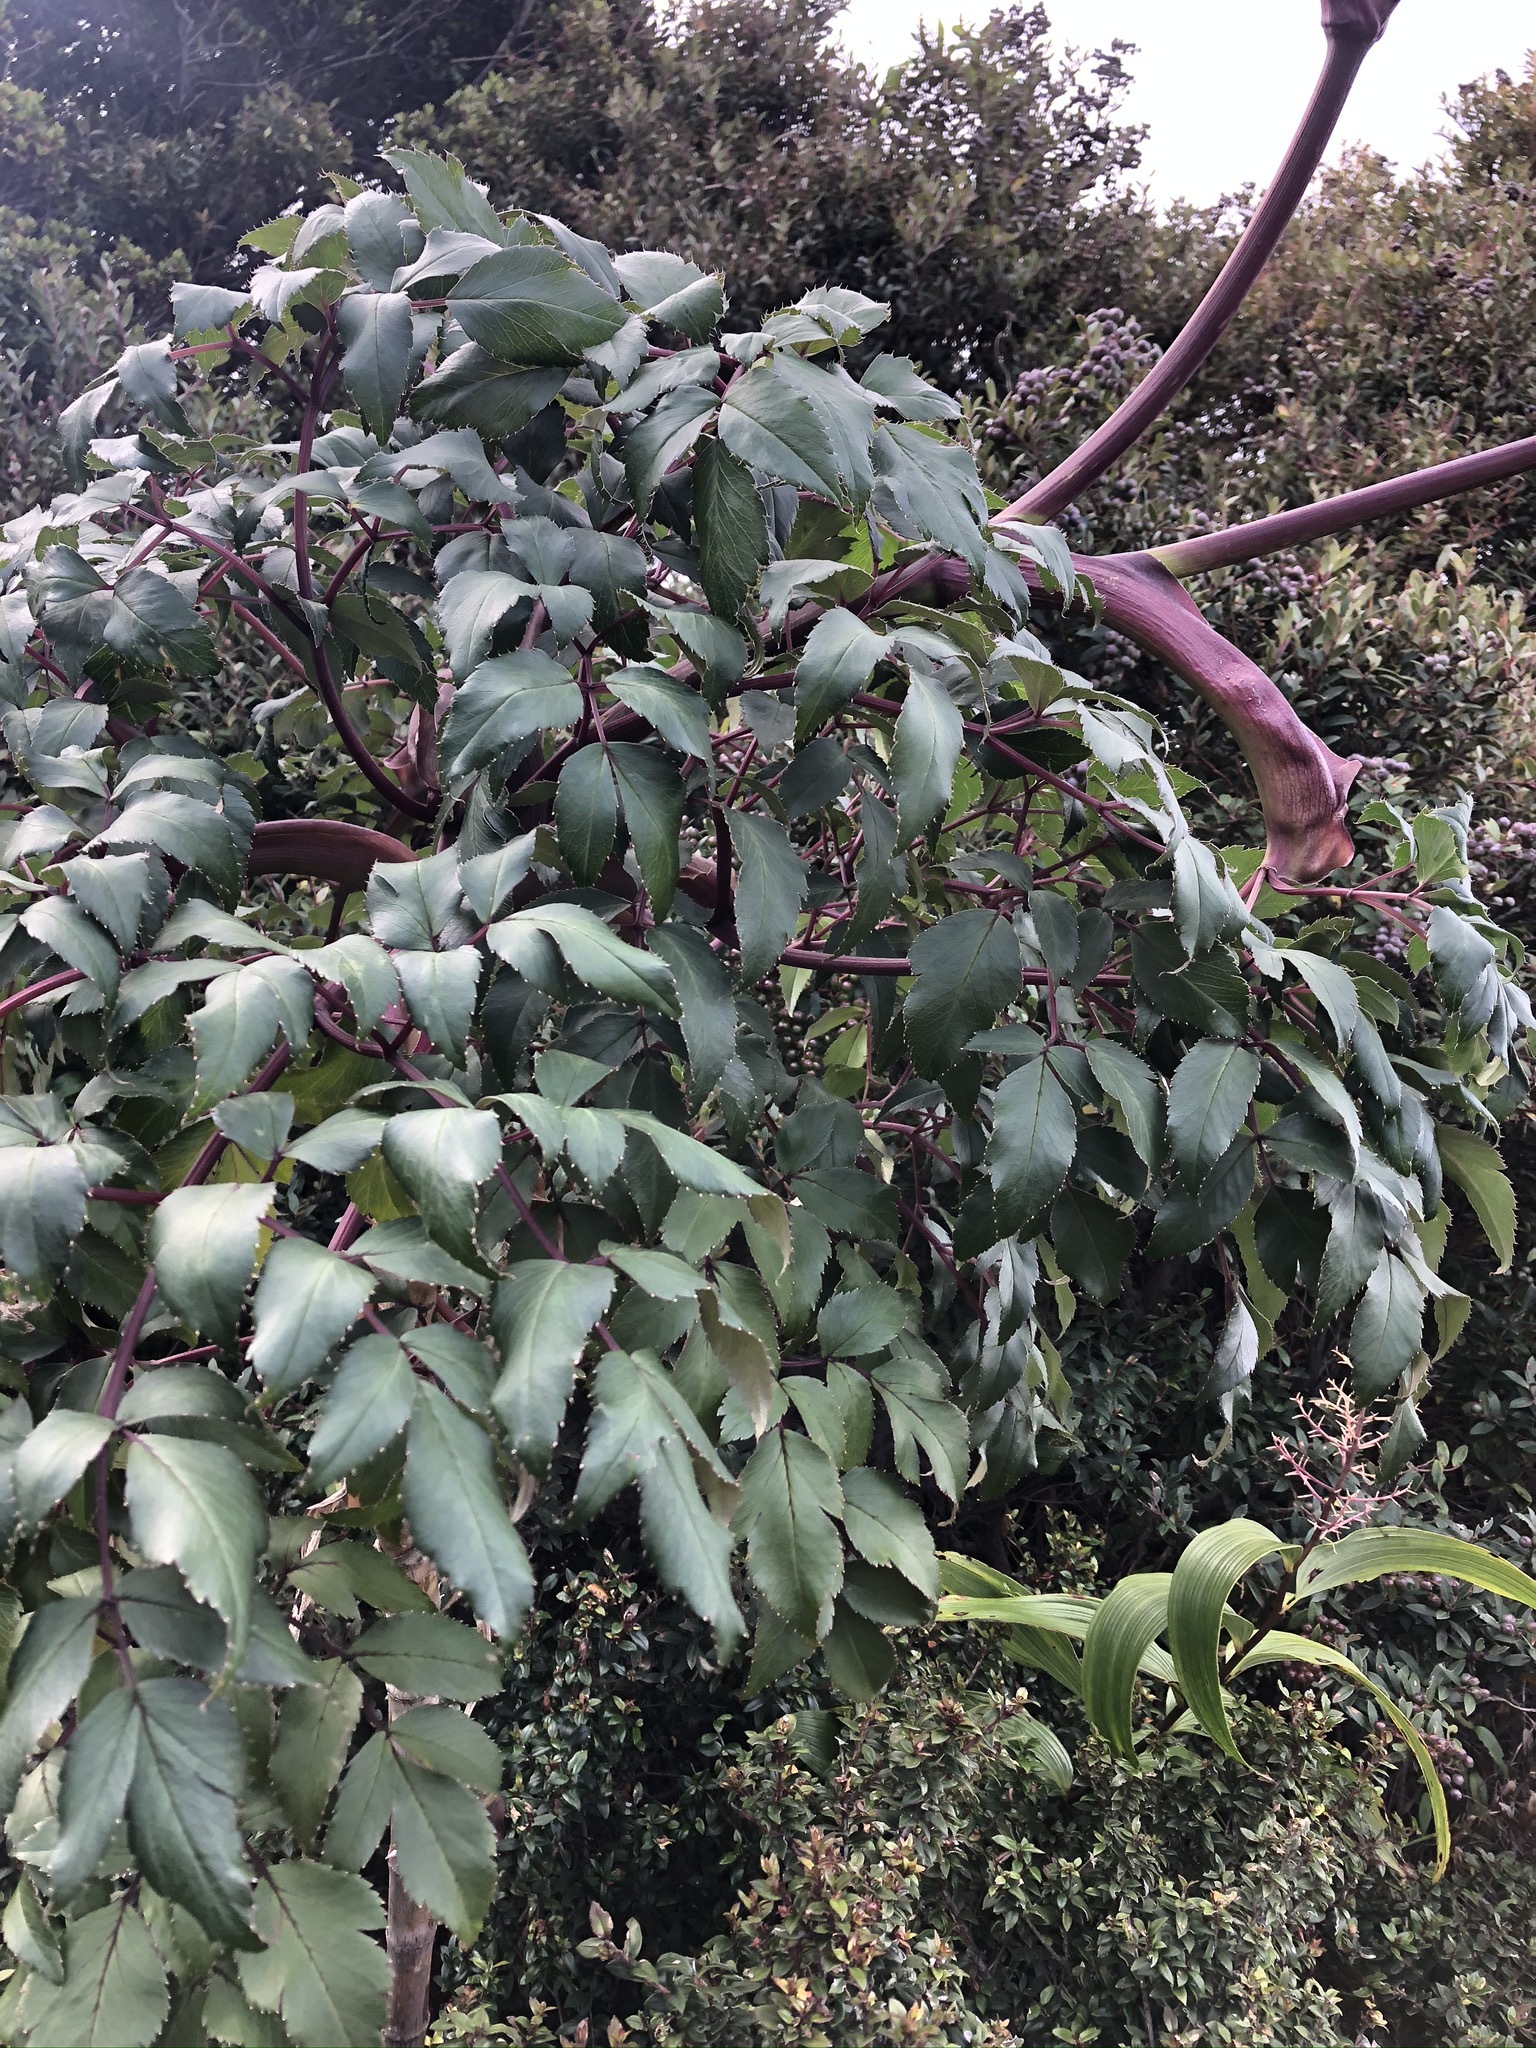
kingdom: Plantae
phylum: Tracheophyta
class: Magnoliopsida
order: Apiales
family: Apiaceae
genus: Myrrhidendron
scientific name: Myrrhidendron donnellsmithii
